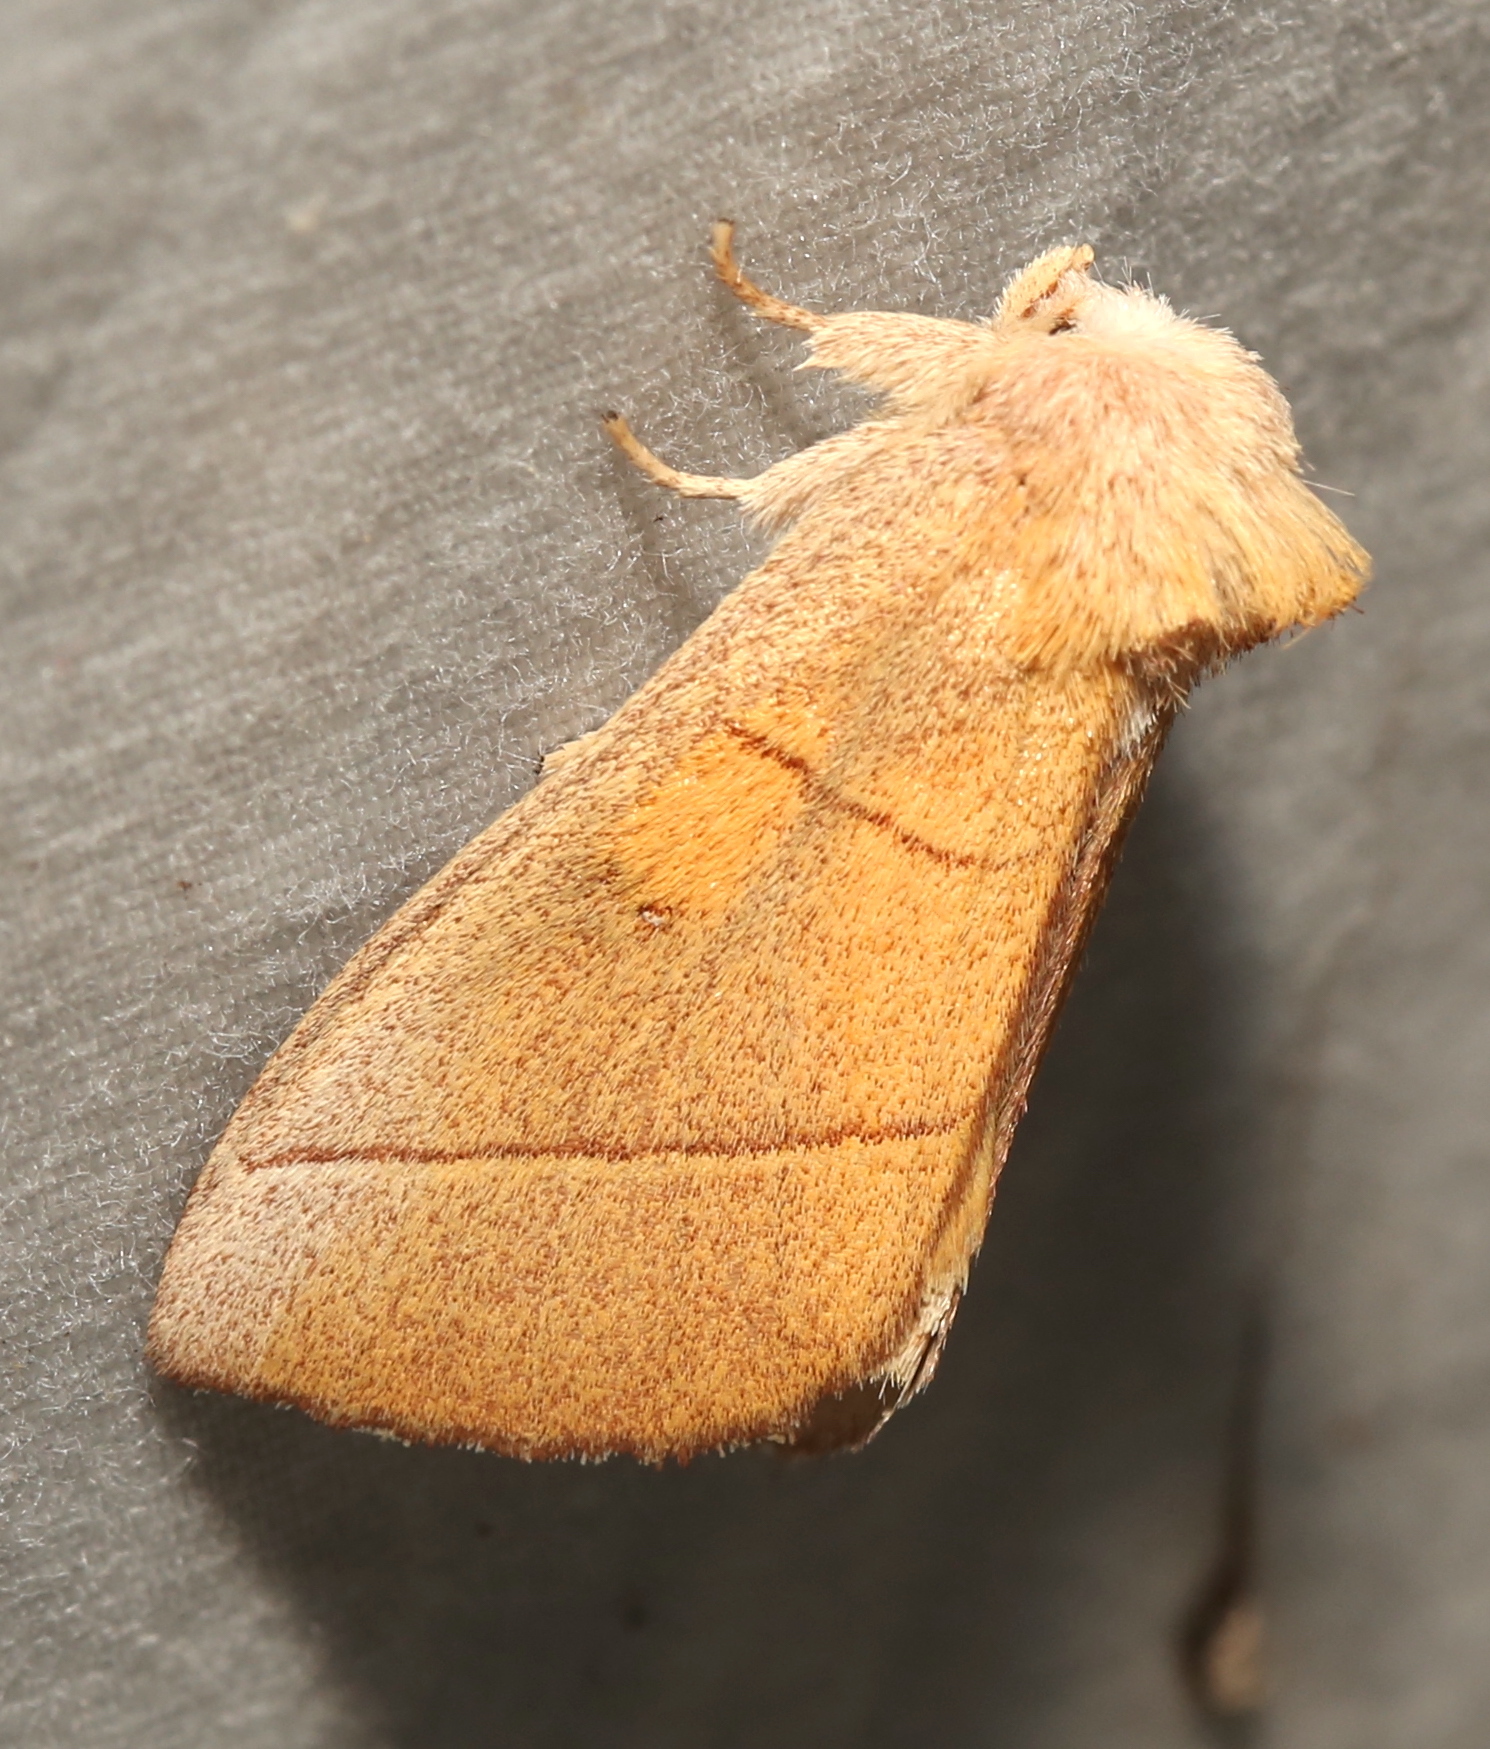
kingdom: Animalia
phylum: Arthropoda
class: Insecta
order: Lepidoptera
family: Notodontidae
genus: Nadata
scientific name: Nadata gibbosa
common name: White-dotted prominent
